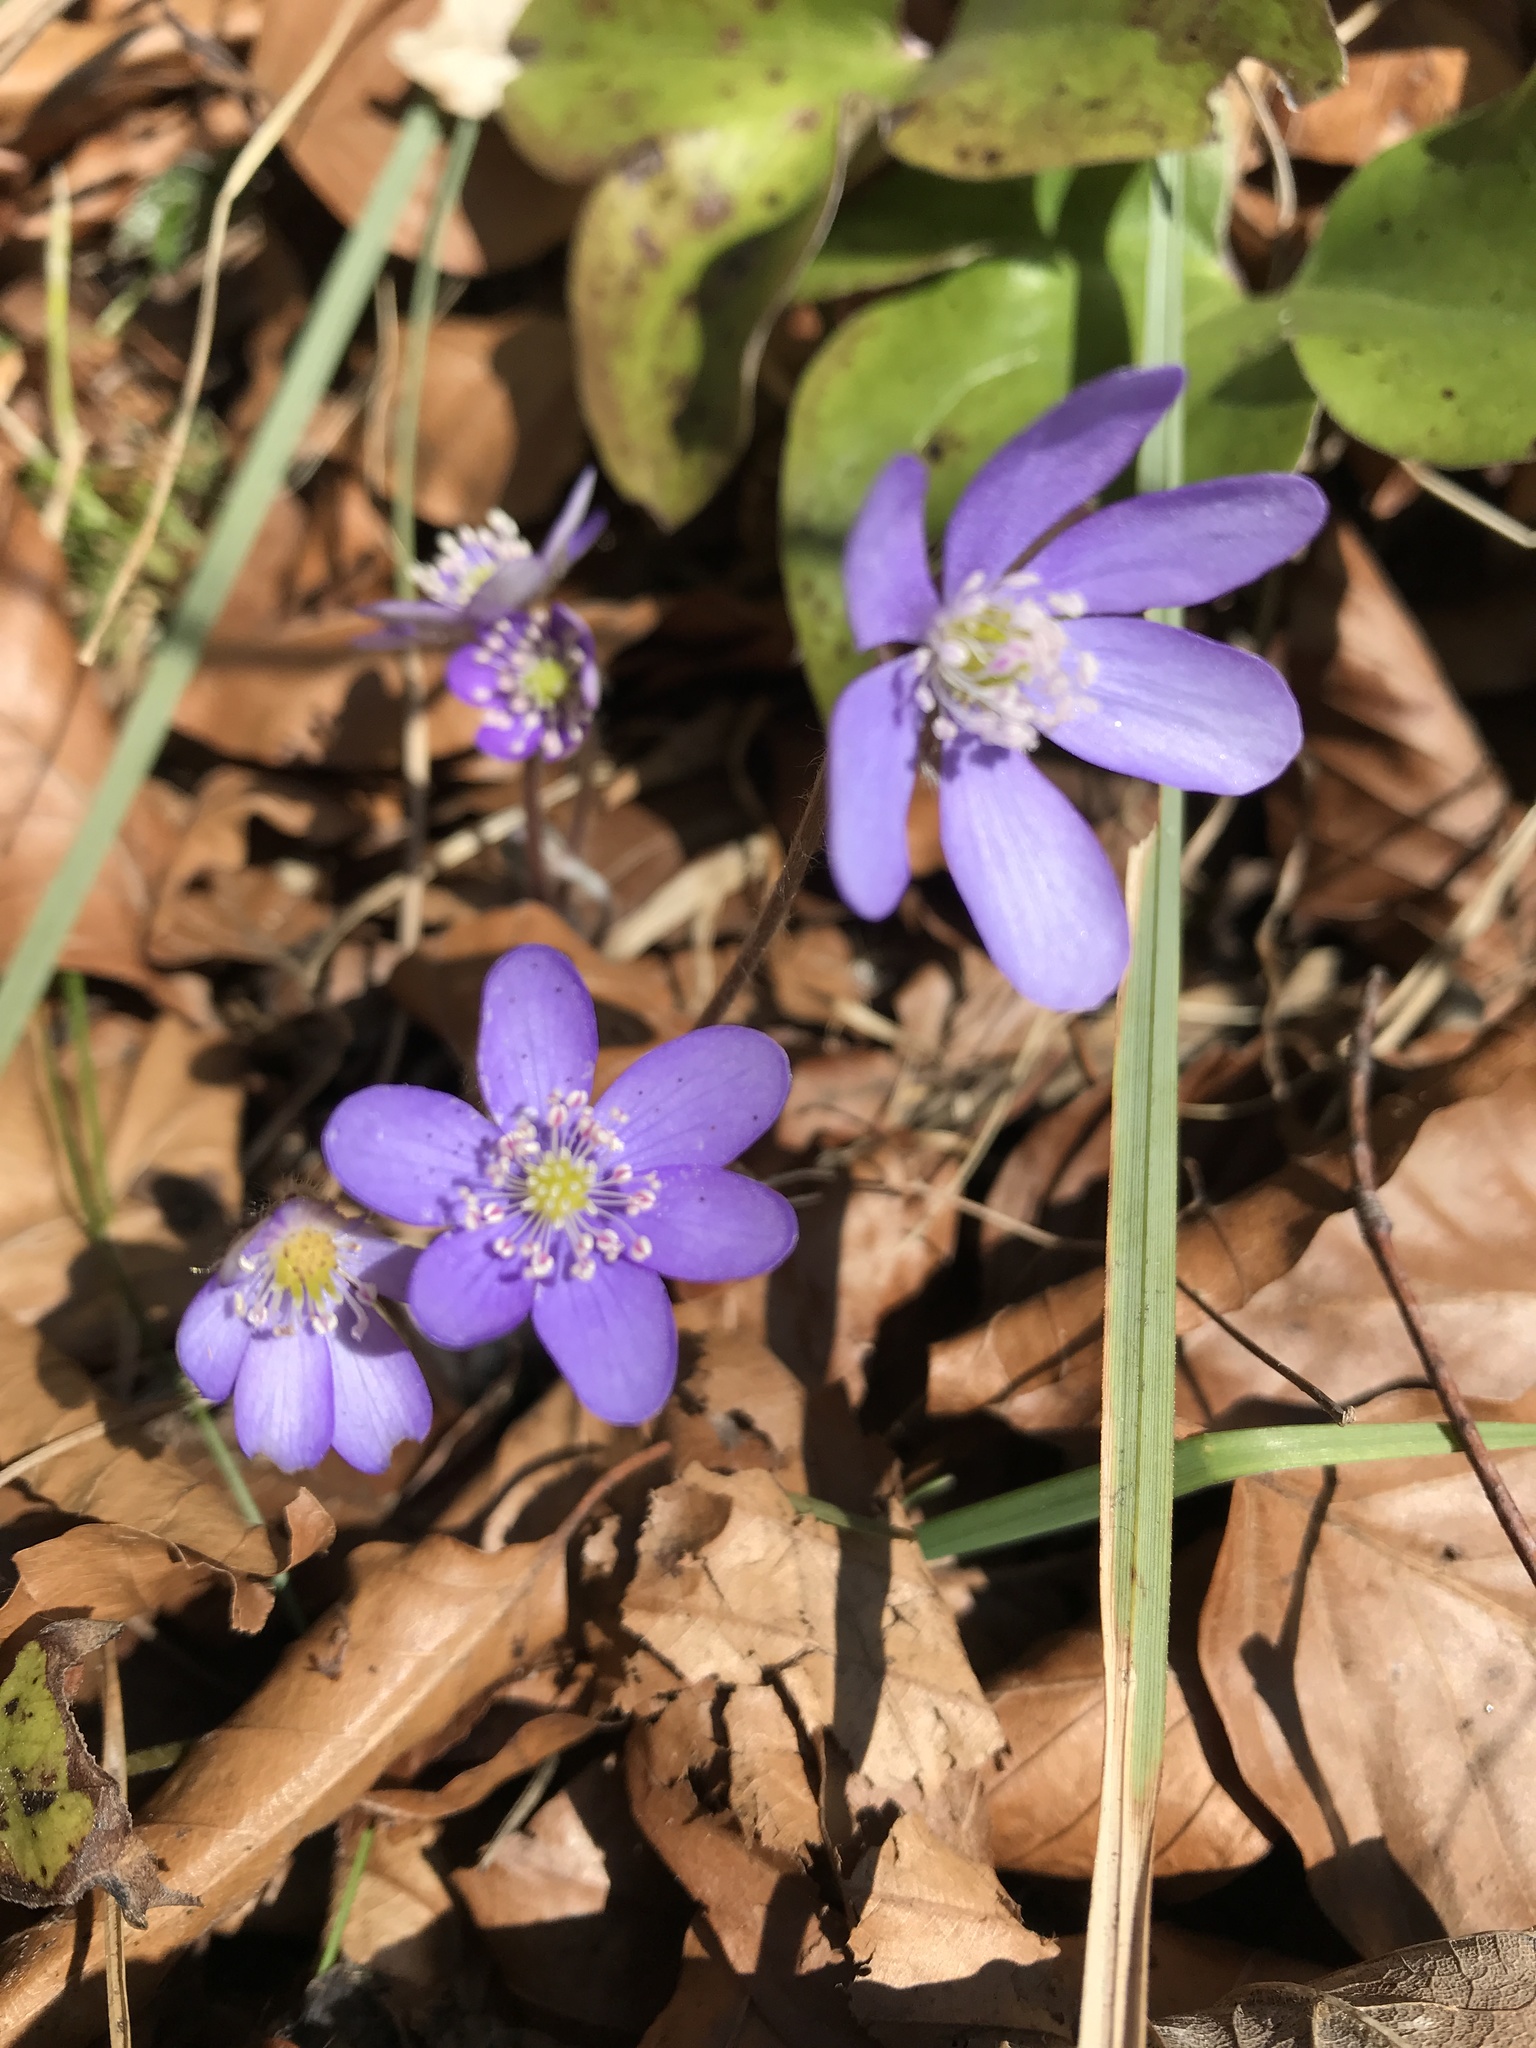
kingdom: Plantae
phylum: Tracheophyta
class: Magnoliopsida
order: Ranunculales
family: Ranunculaceae
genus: Hepatica
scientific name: Hepatica nobilis
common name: Liverleaf
